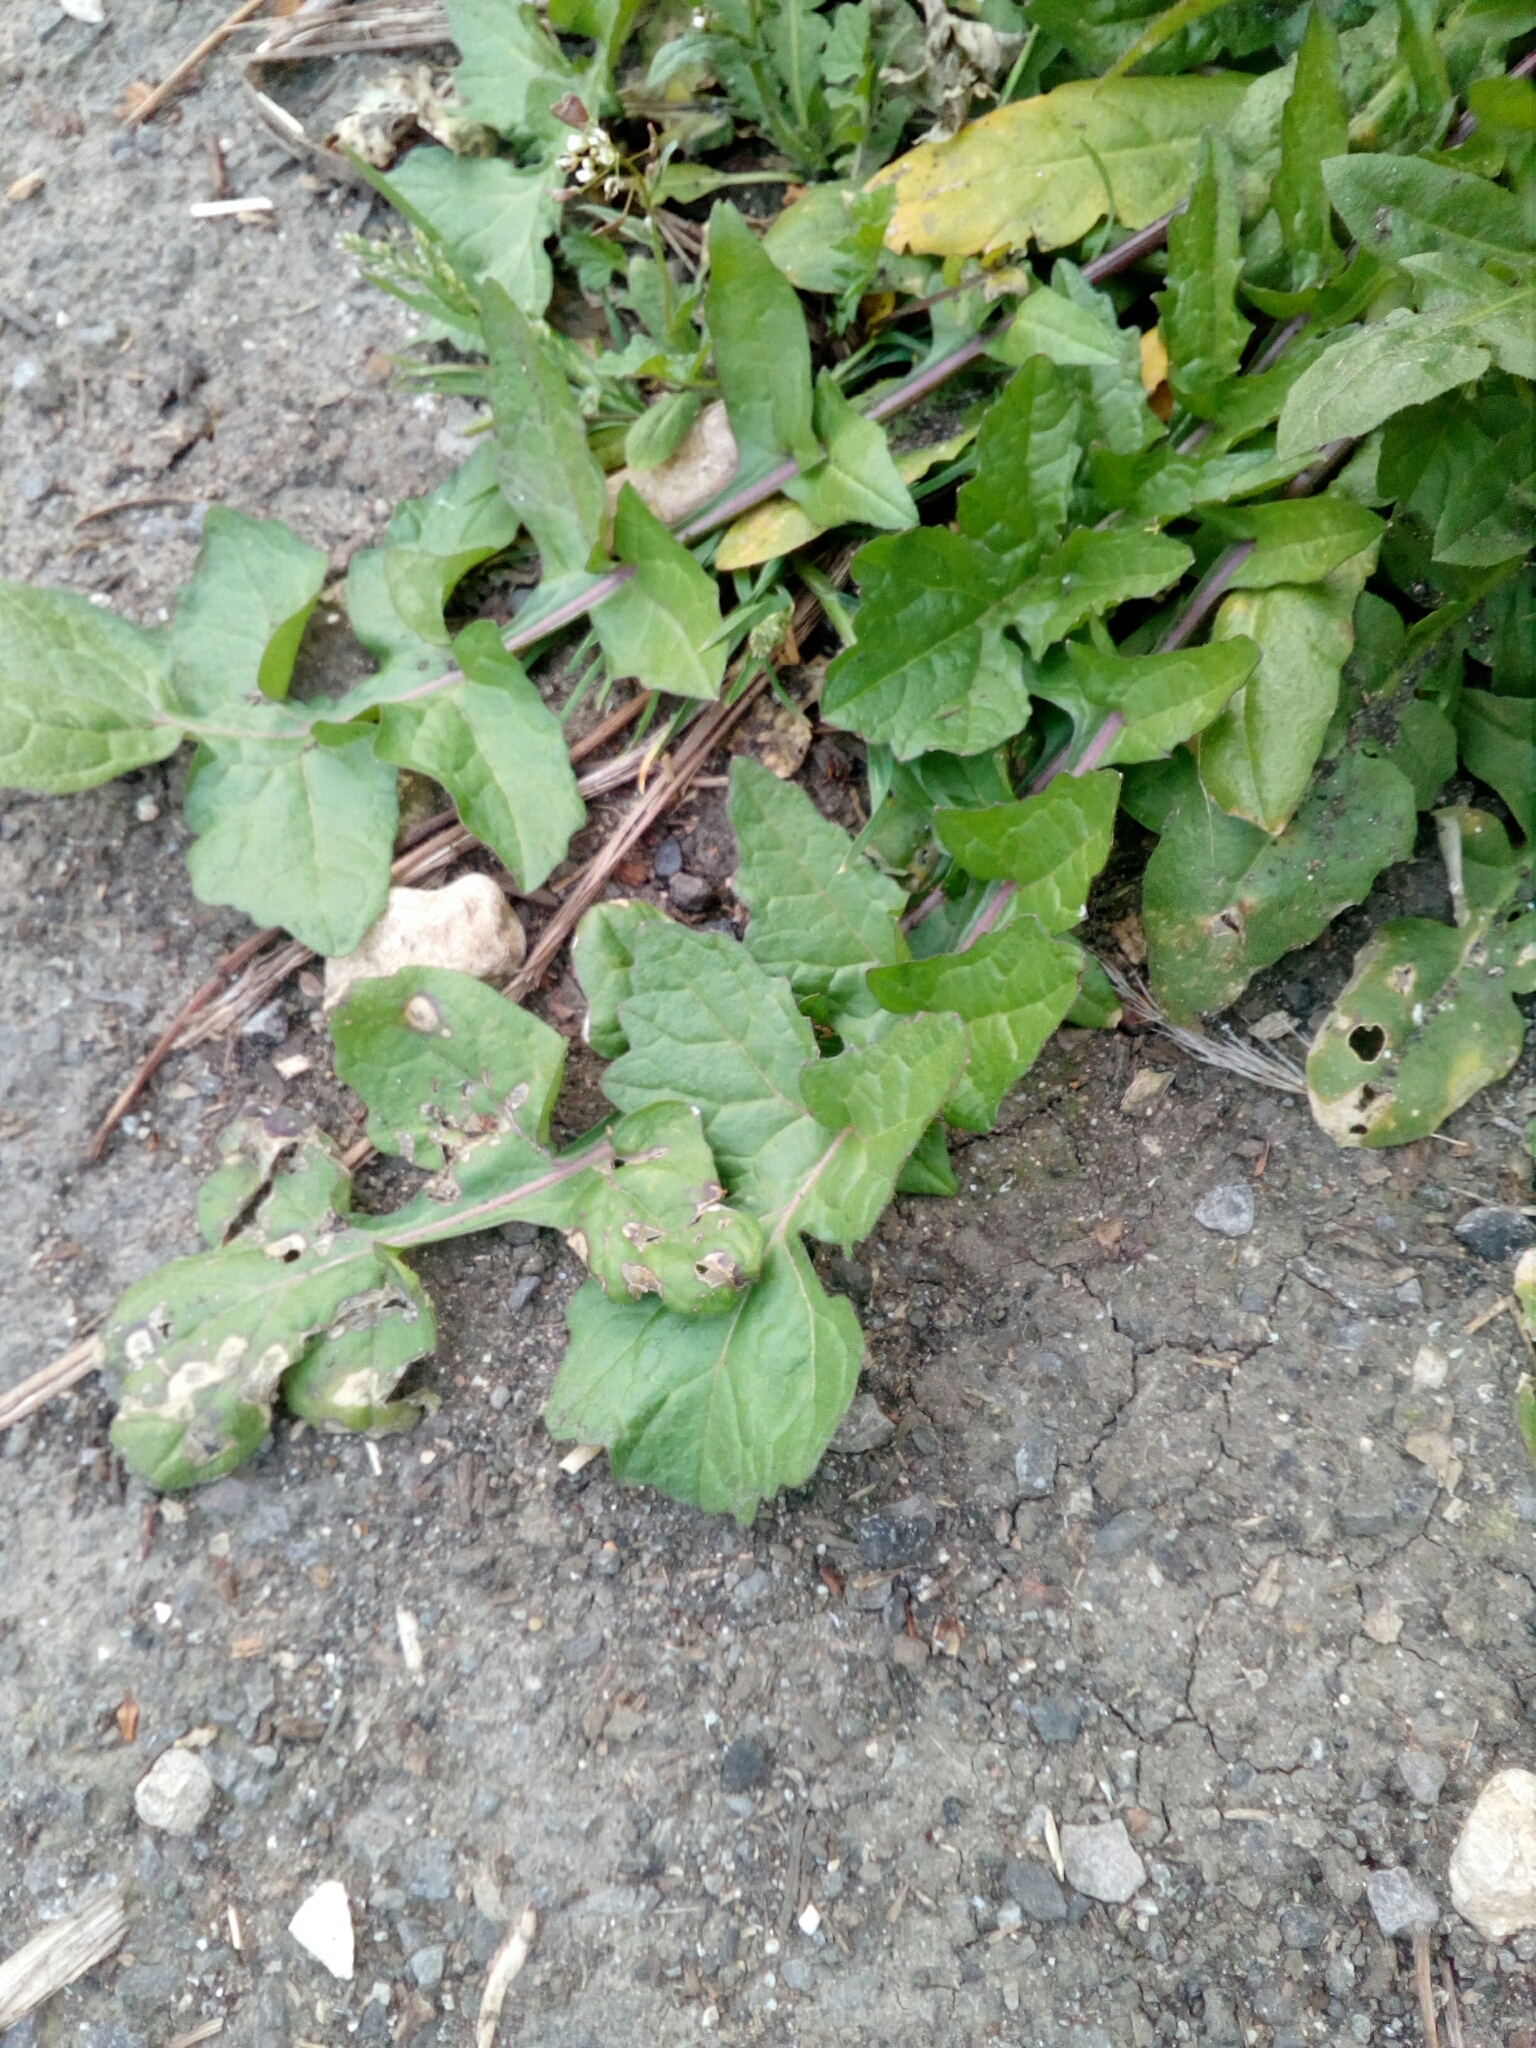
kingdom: Plantae
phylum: Tracheophyta
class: Magnoliopsida
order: Brassicales
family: Brassicaceae
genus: Capsella
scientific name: Capsella bursa-pastoris
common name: Shepherd's purse
